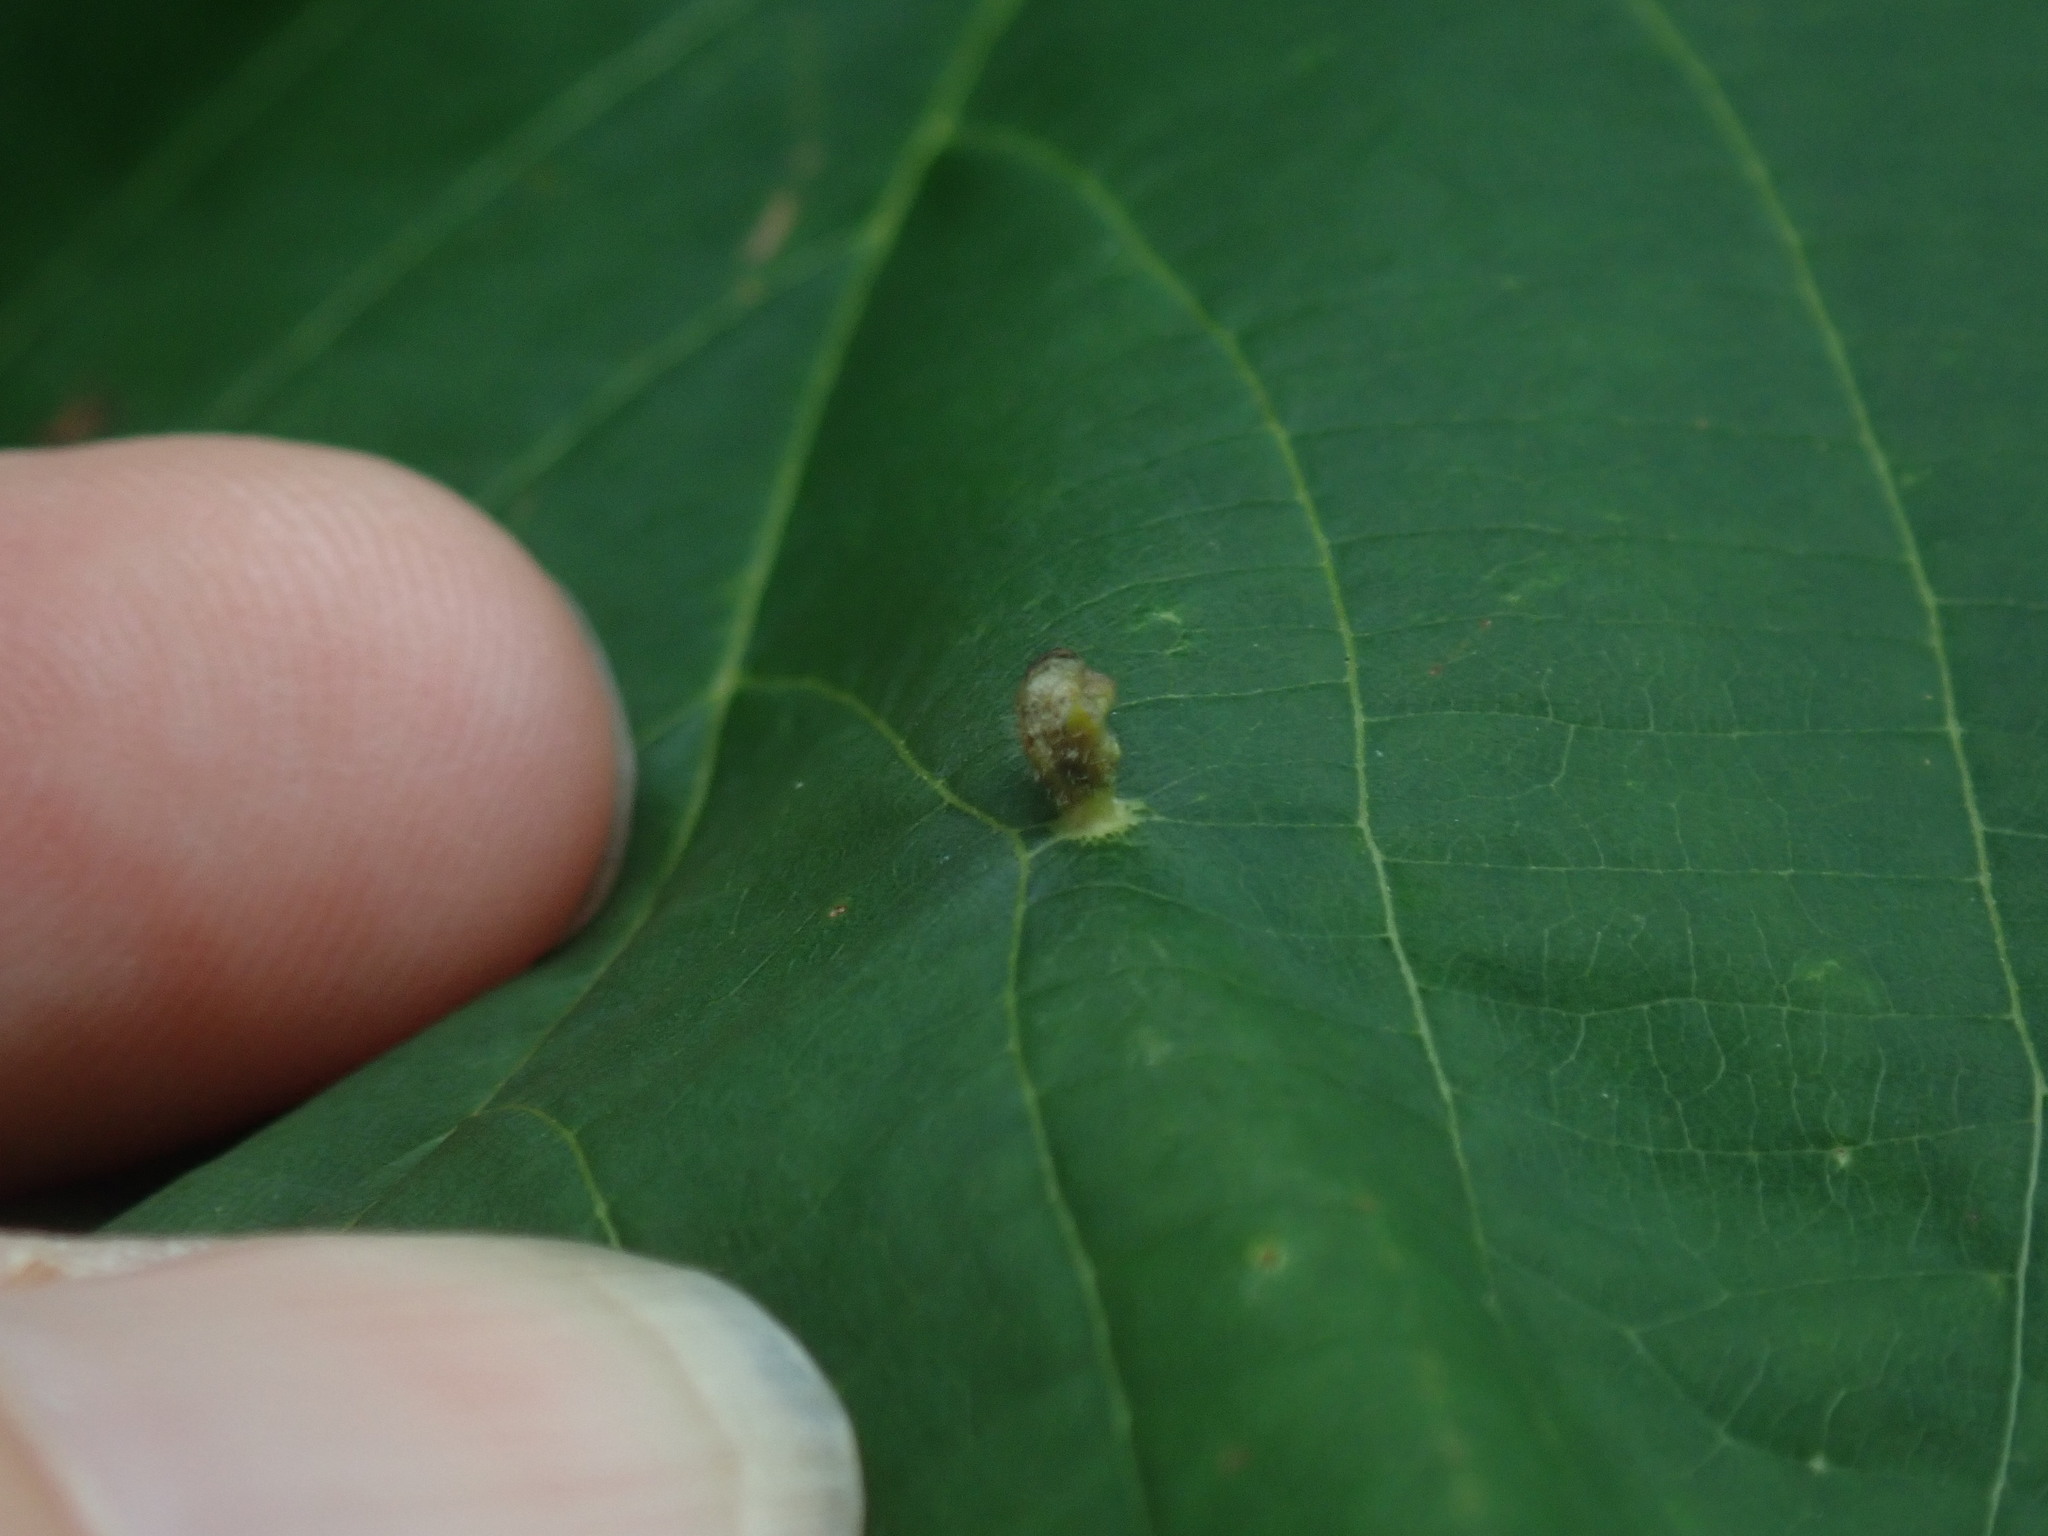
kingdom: Animalia
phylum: Arthropoda
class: Arachnida
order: Trombidiformes
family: Eriophyidae
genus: Eriophyes
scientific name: Eriophyes tiliae
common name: Red nail gall mite
